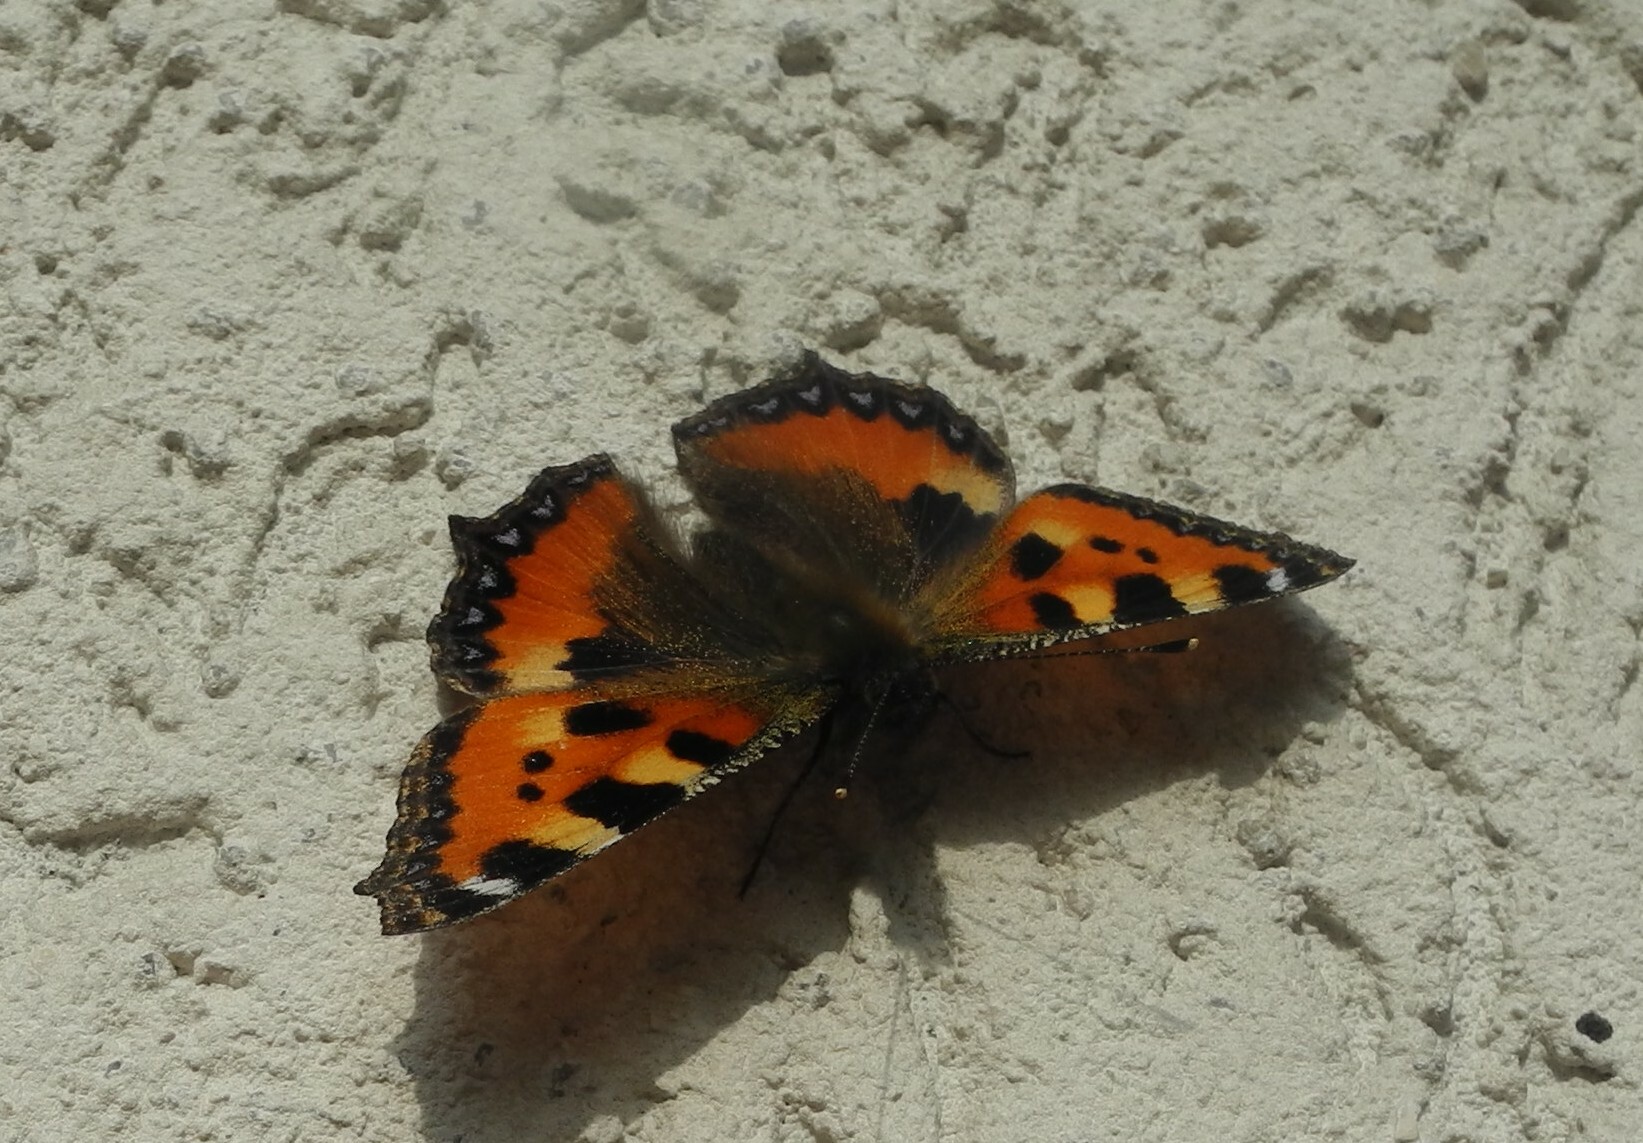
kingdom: Animalia
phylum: Arthropoda
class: Insecta
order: Lepidoptera
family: Nymphalidae
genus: Aglais
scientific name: Aglais urticae
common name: Small tortoiseshell
